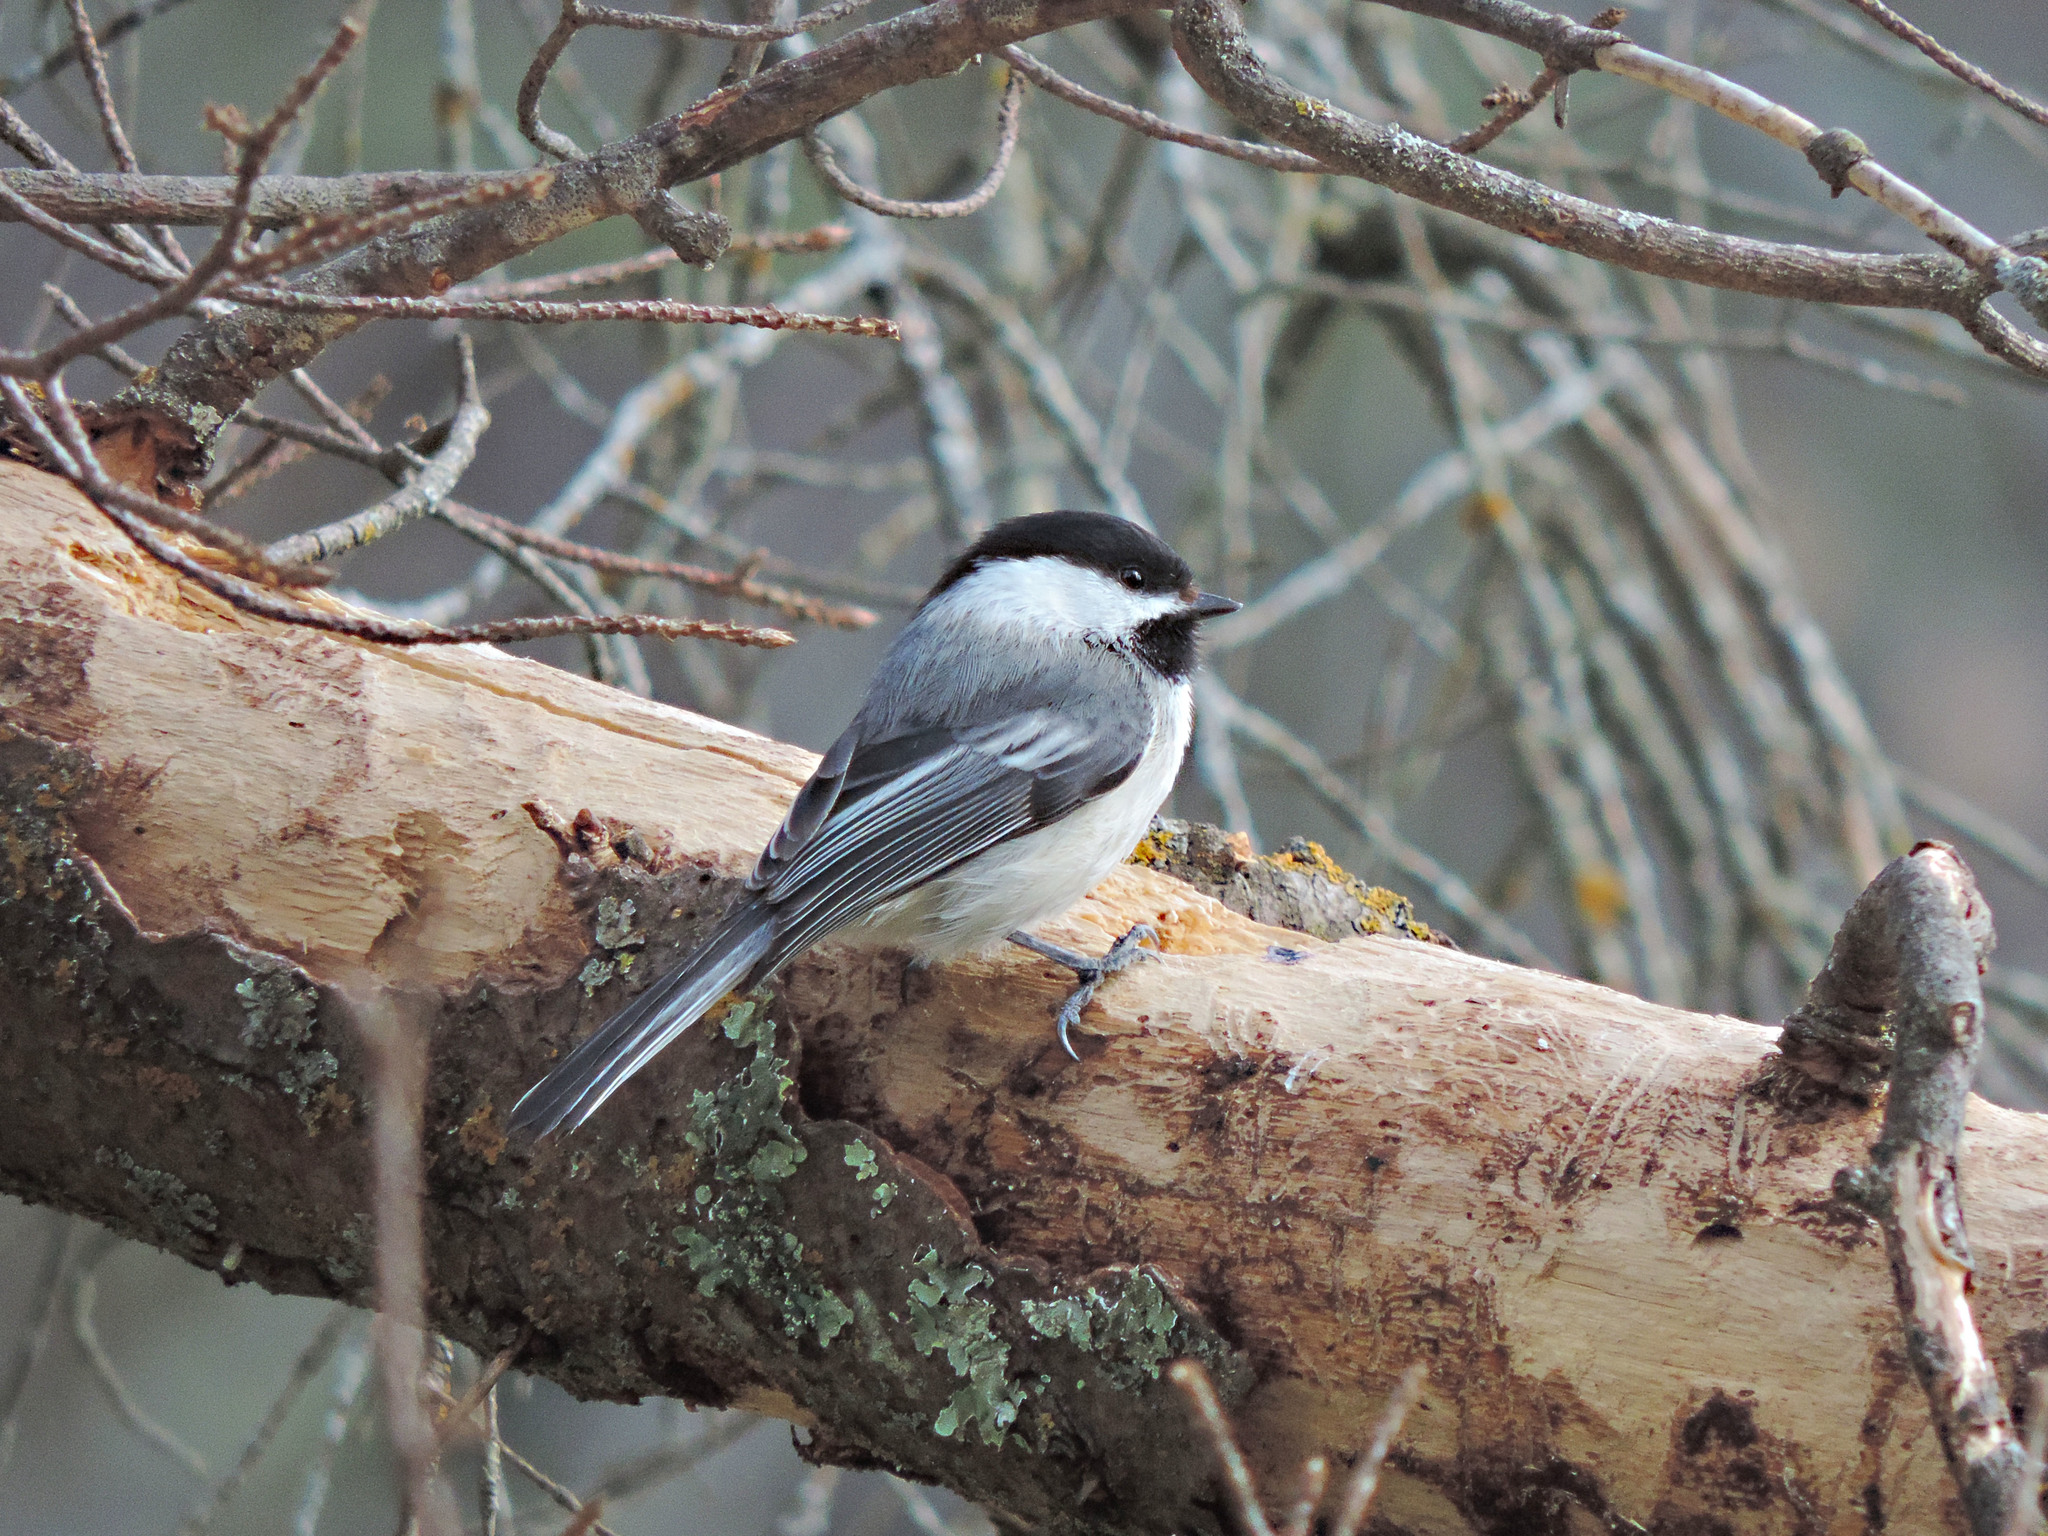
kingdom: Animalia
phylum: Chordata
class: Aves
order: Passeriformes
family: Paridae
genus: Poecile
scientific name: Poecile atricapillus
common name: Black-capped chickadee
